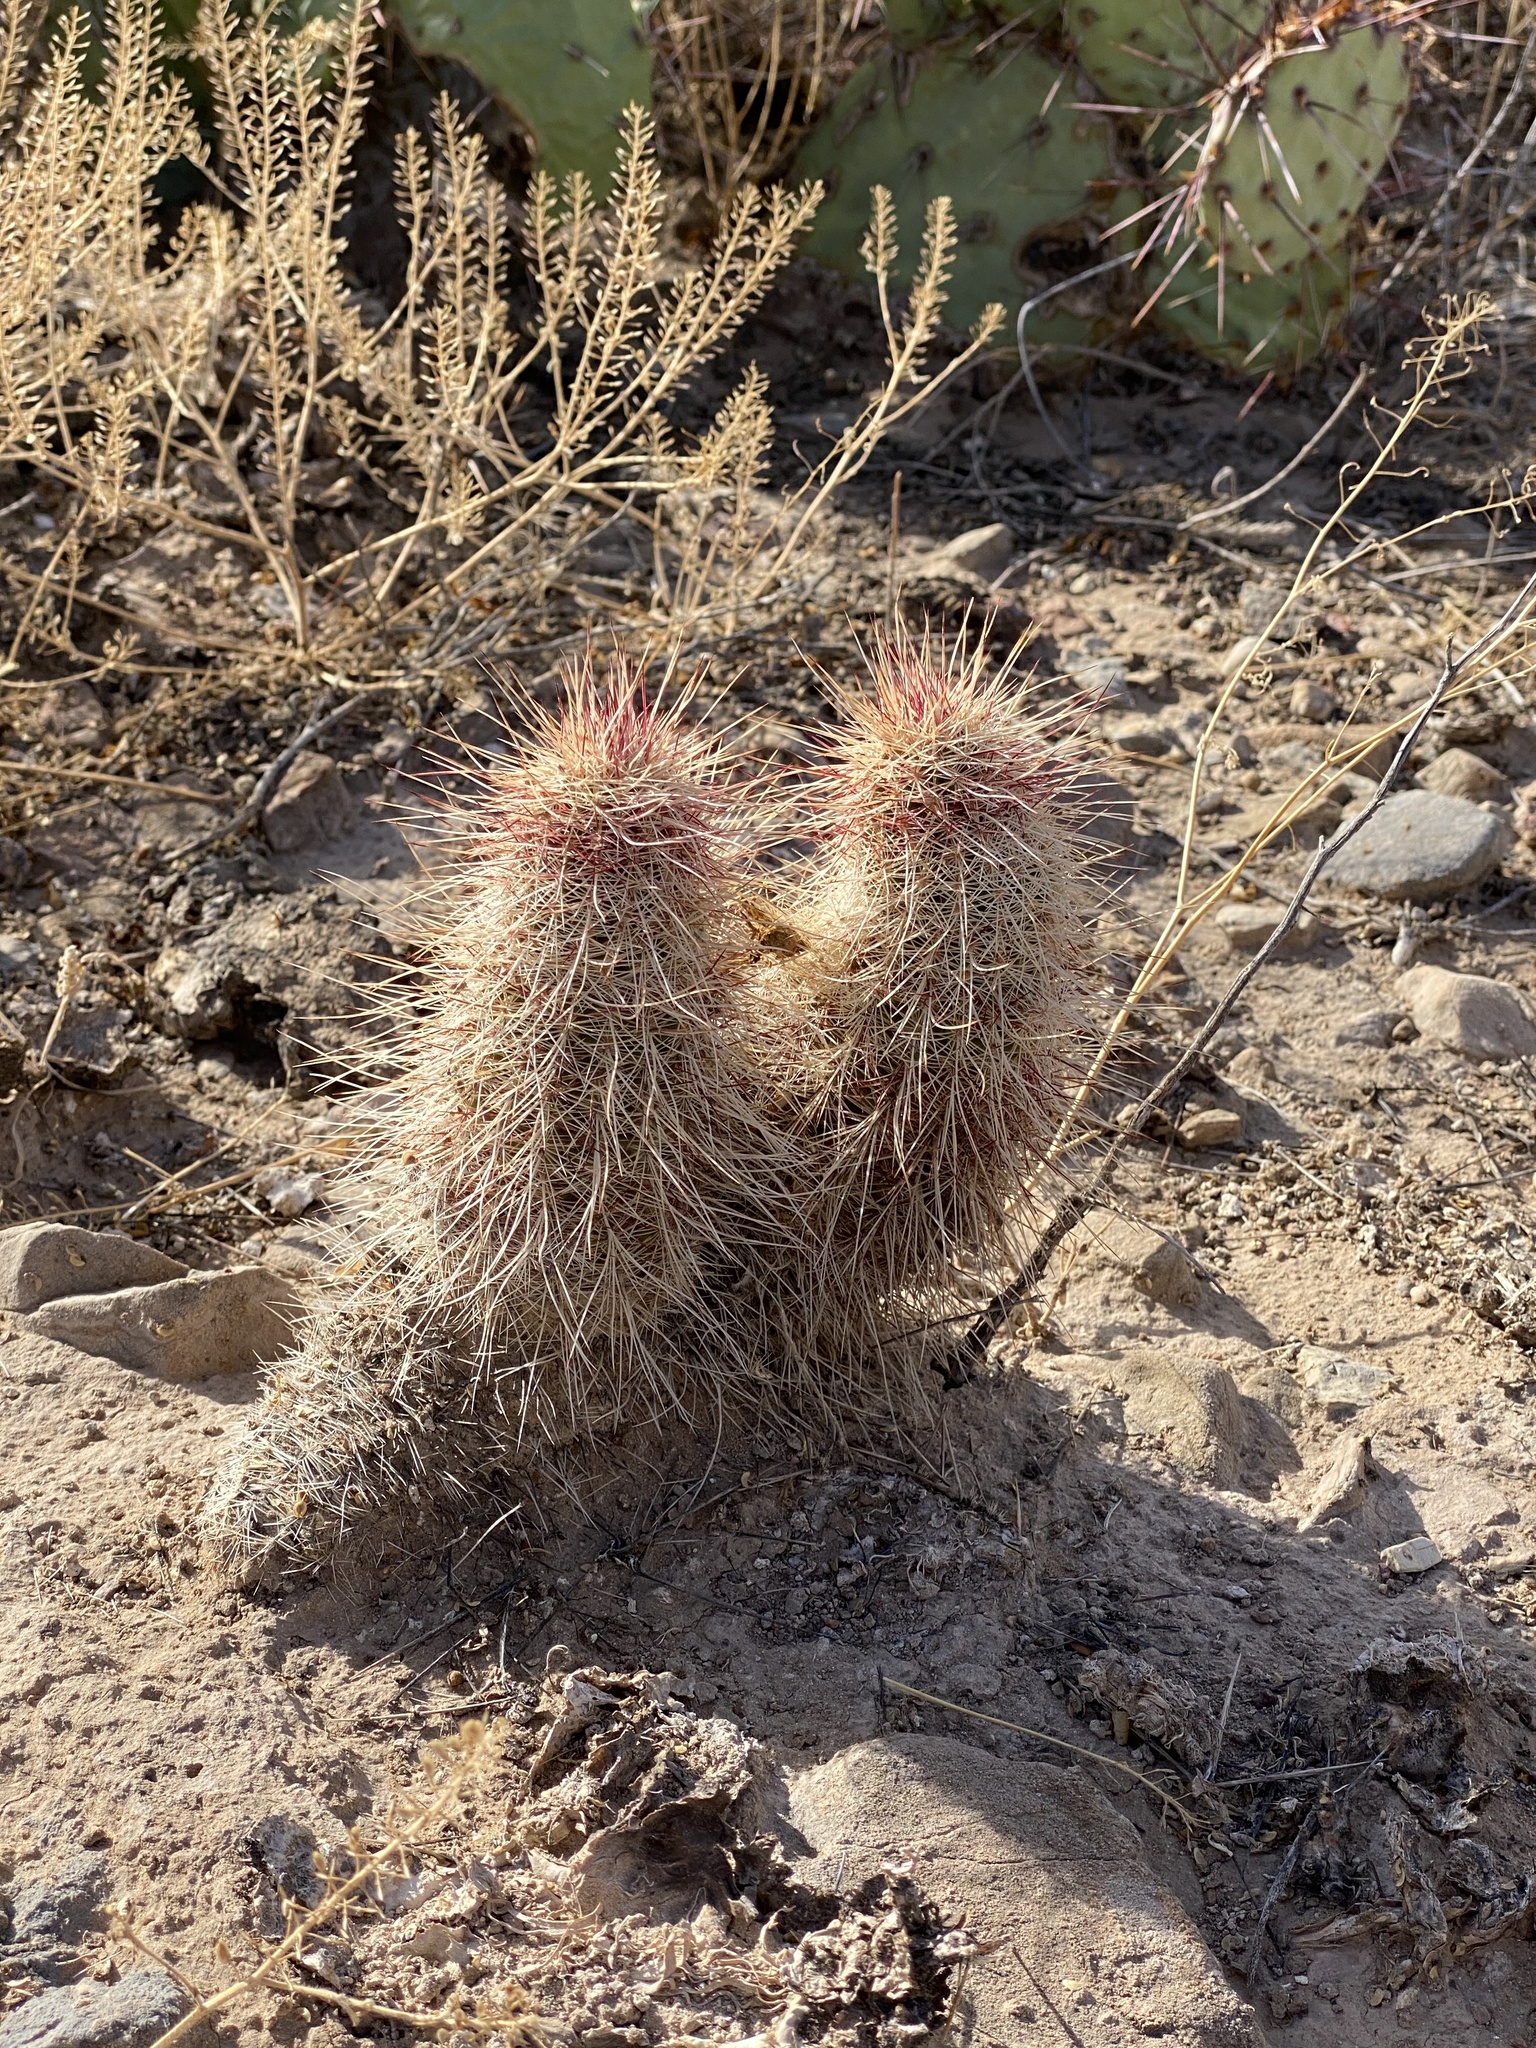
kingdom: Plantae
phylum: Tracheophyta
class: Magnoliopsida
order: Caryophyllales
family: Cactaceae
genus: Echinocereus
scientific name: Echinocereus viridiflorus
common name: Nylon hedgehog cactus
